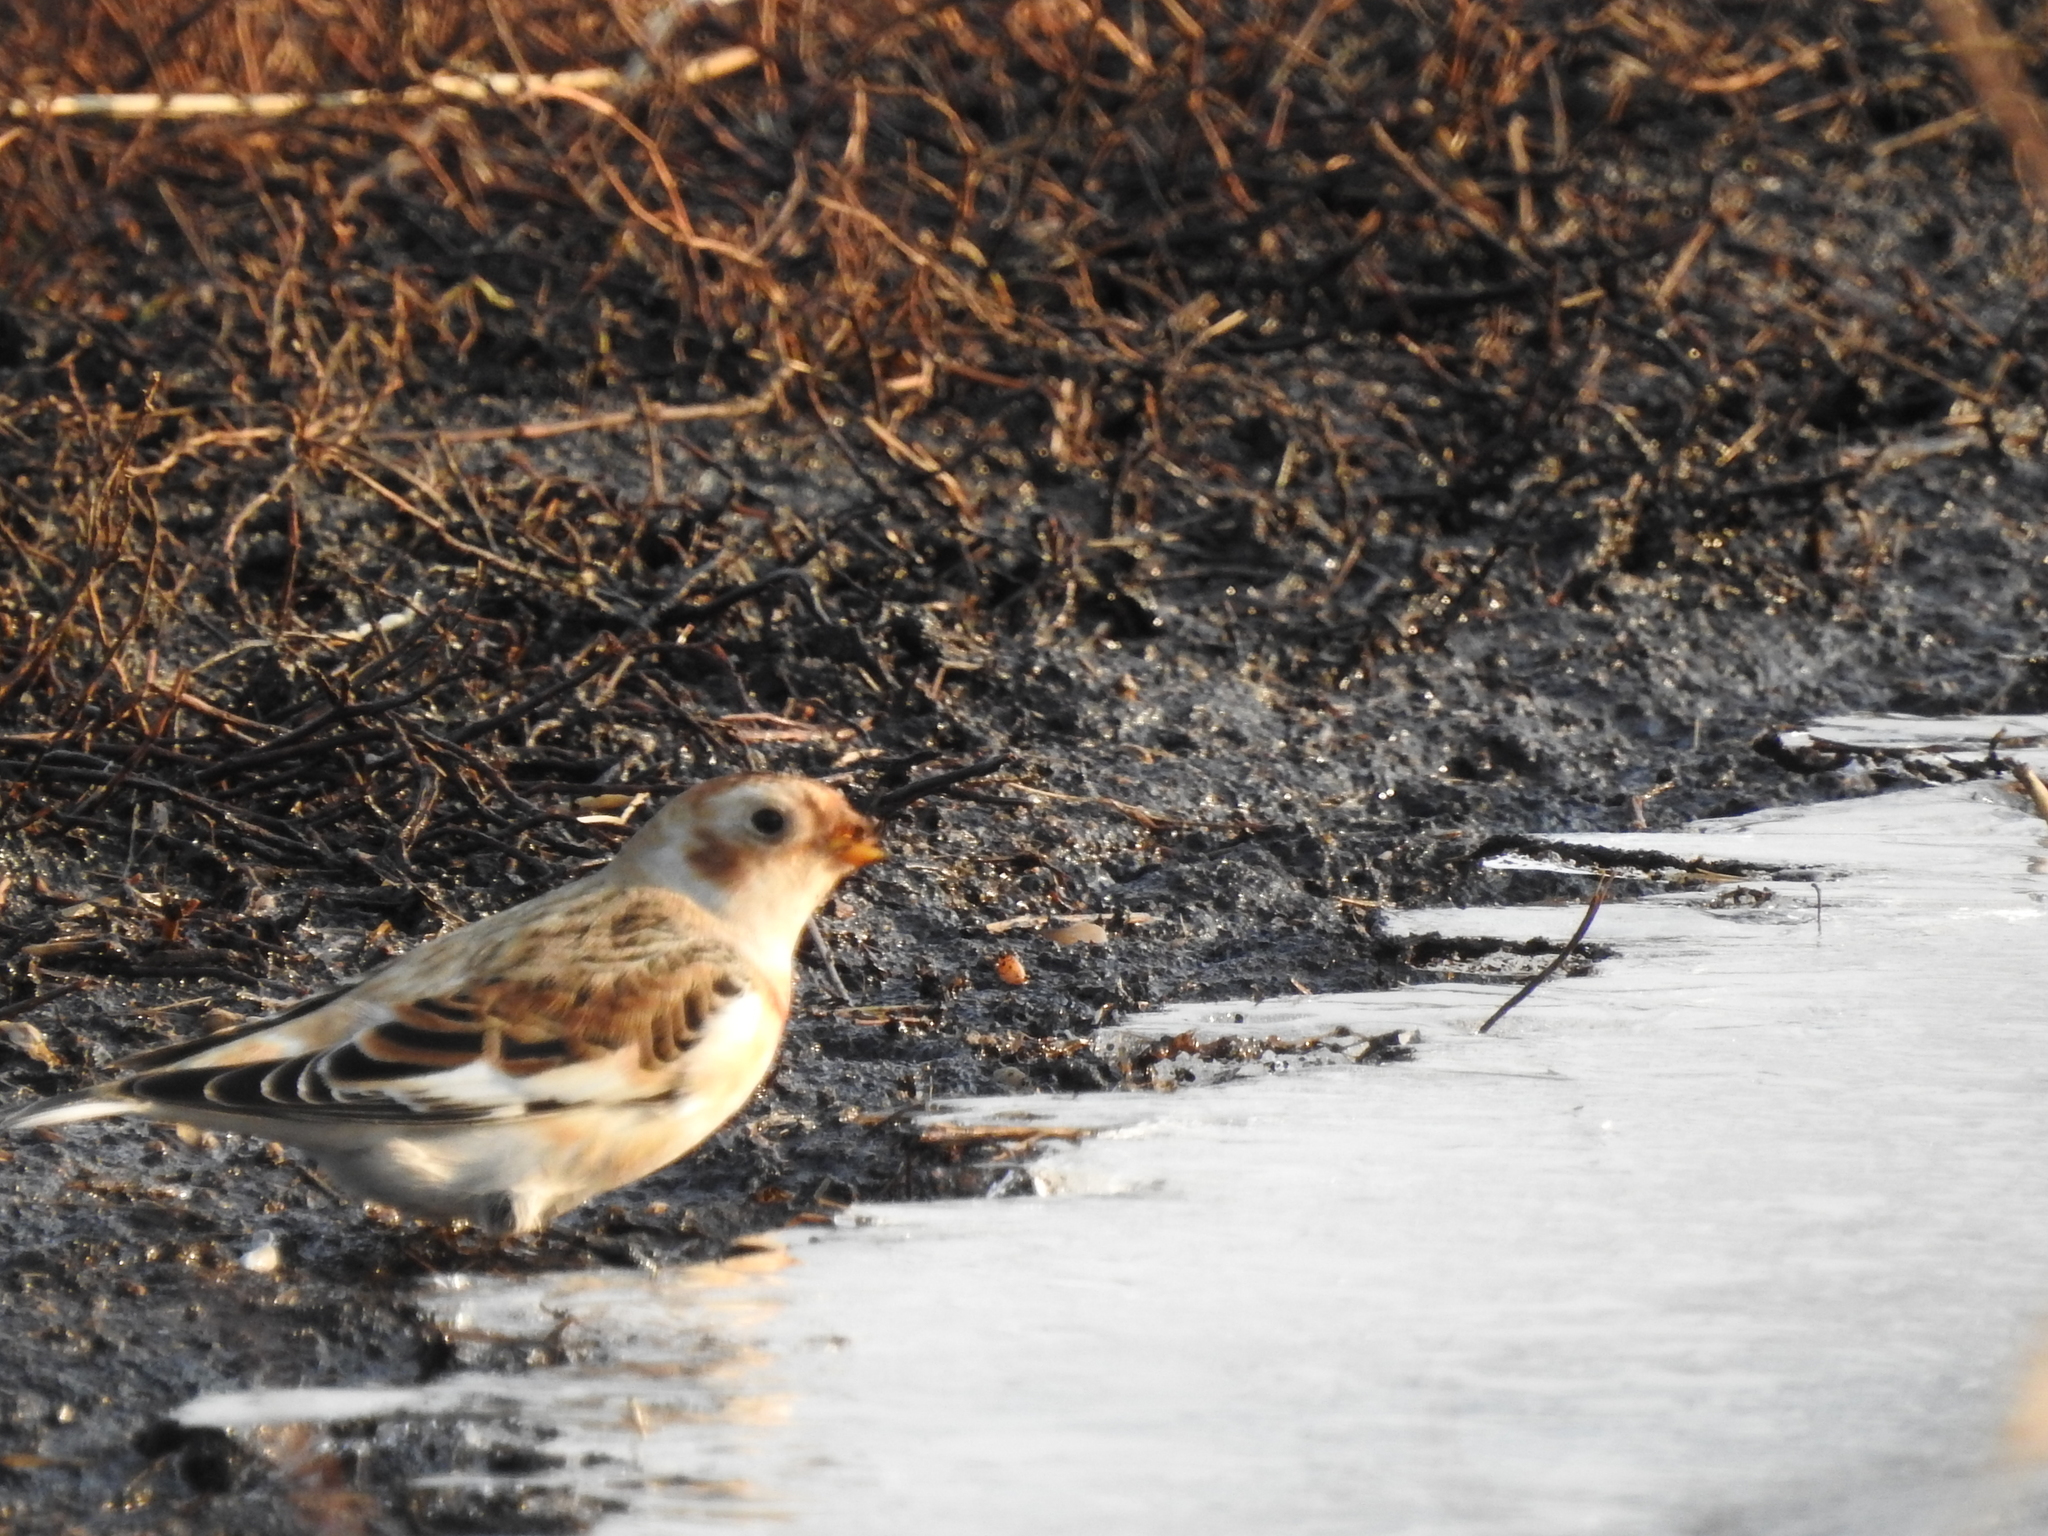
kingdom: Animalia
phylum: Chordata
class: Aves
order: Passeriformes
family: Calcariidae
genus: Plectrophenax
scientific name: Plectrophenax nivalis
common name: Snow bunting
